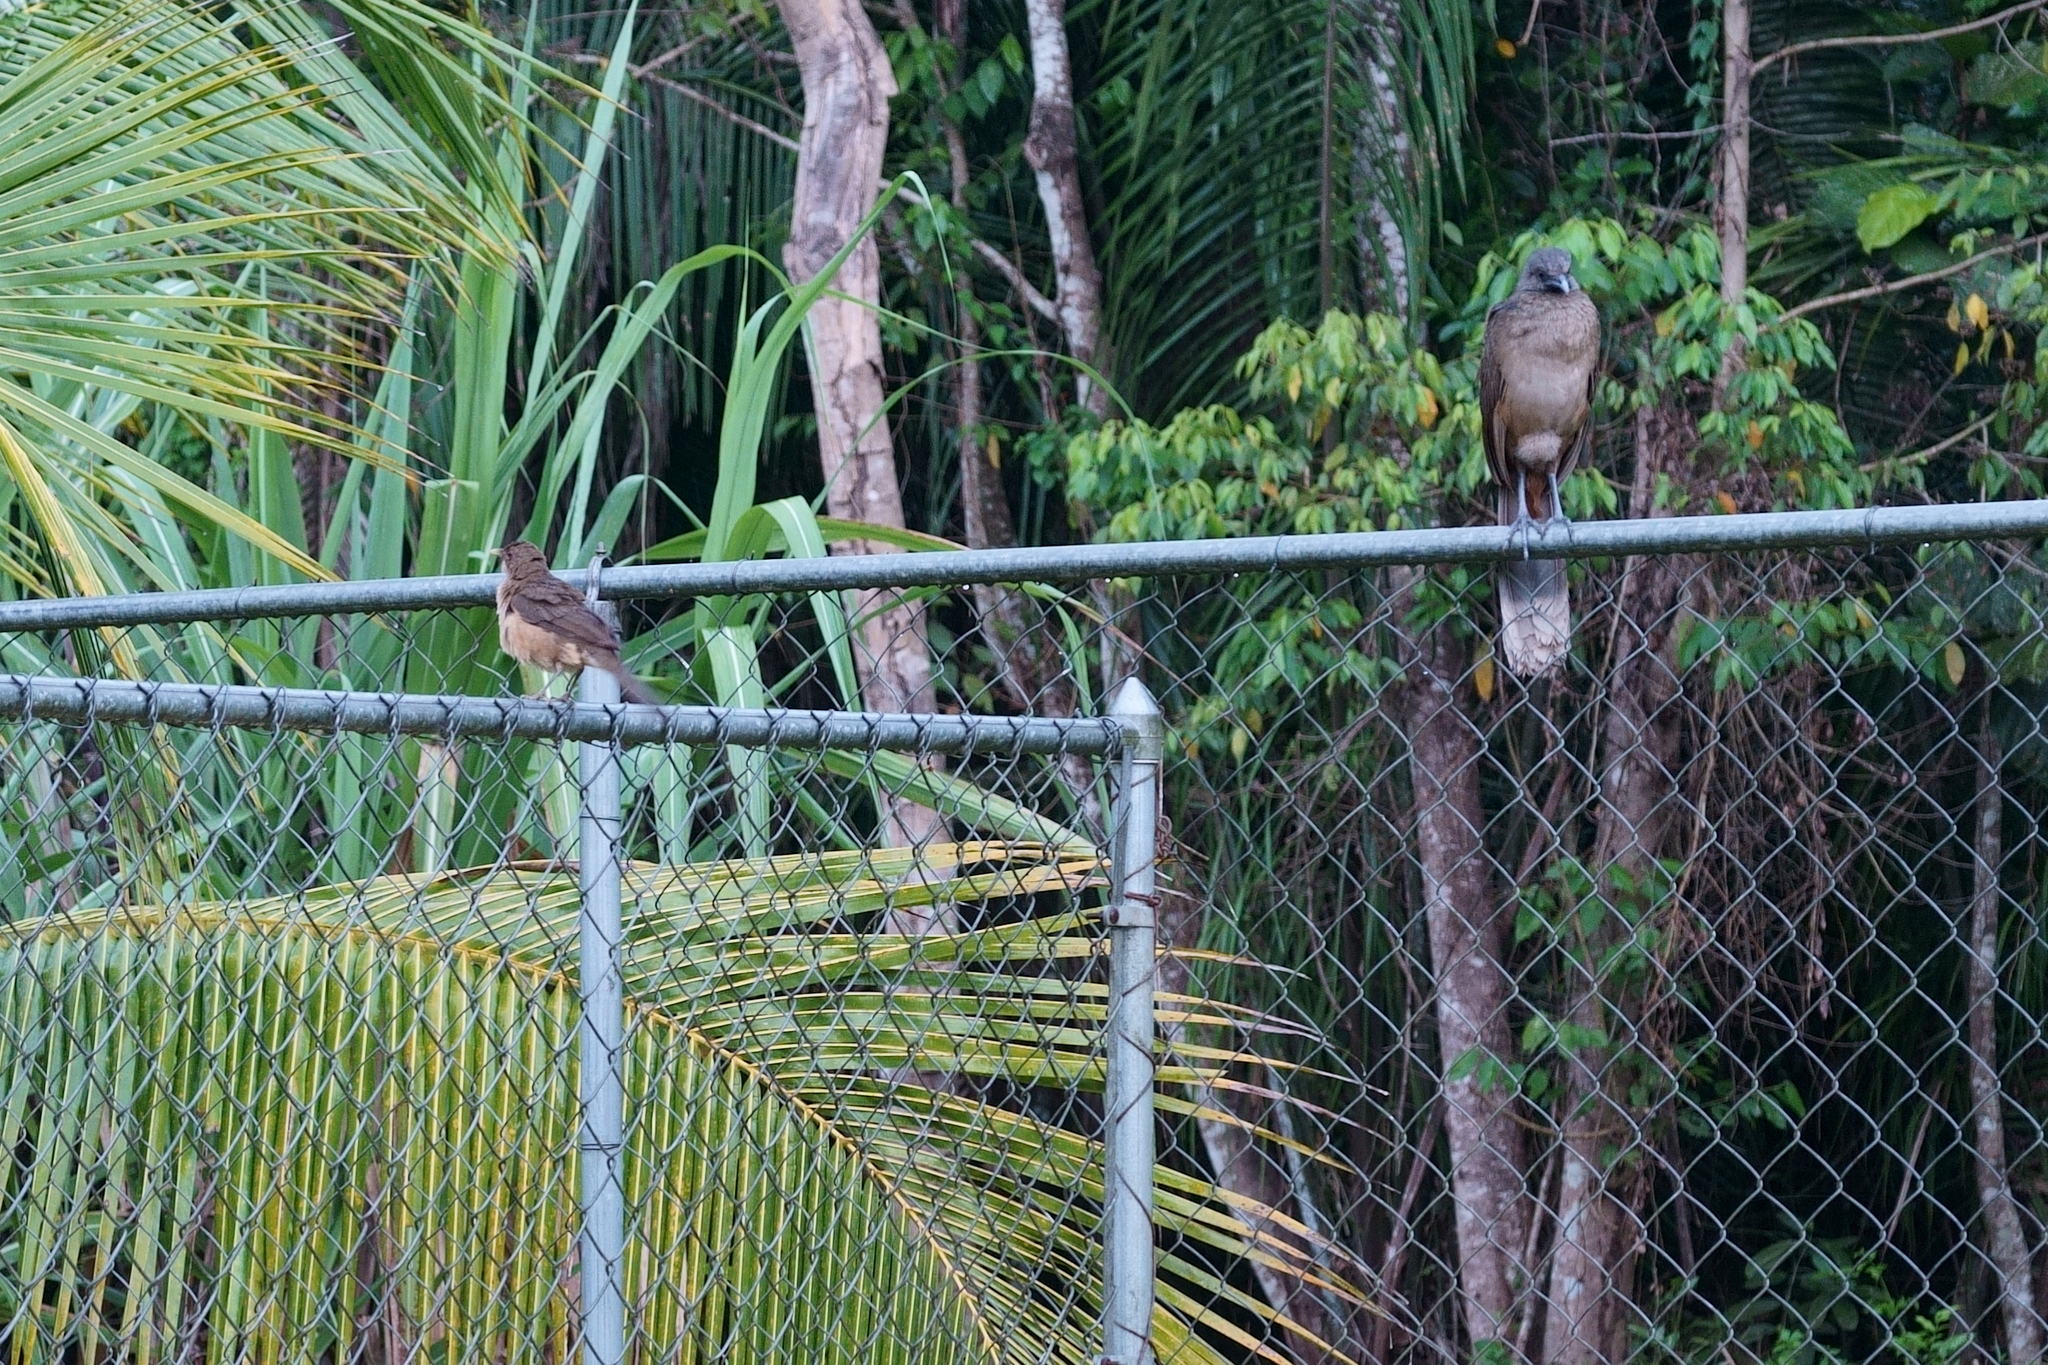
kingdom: Animalia
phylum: Chordata
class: Aves
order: Galliformes
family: Cracidae
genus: Ortalis
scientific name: Ortalis vetula
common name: Plain chachalaca
